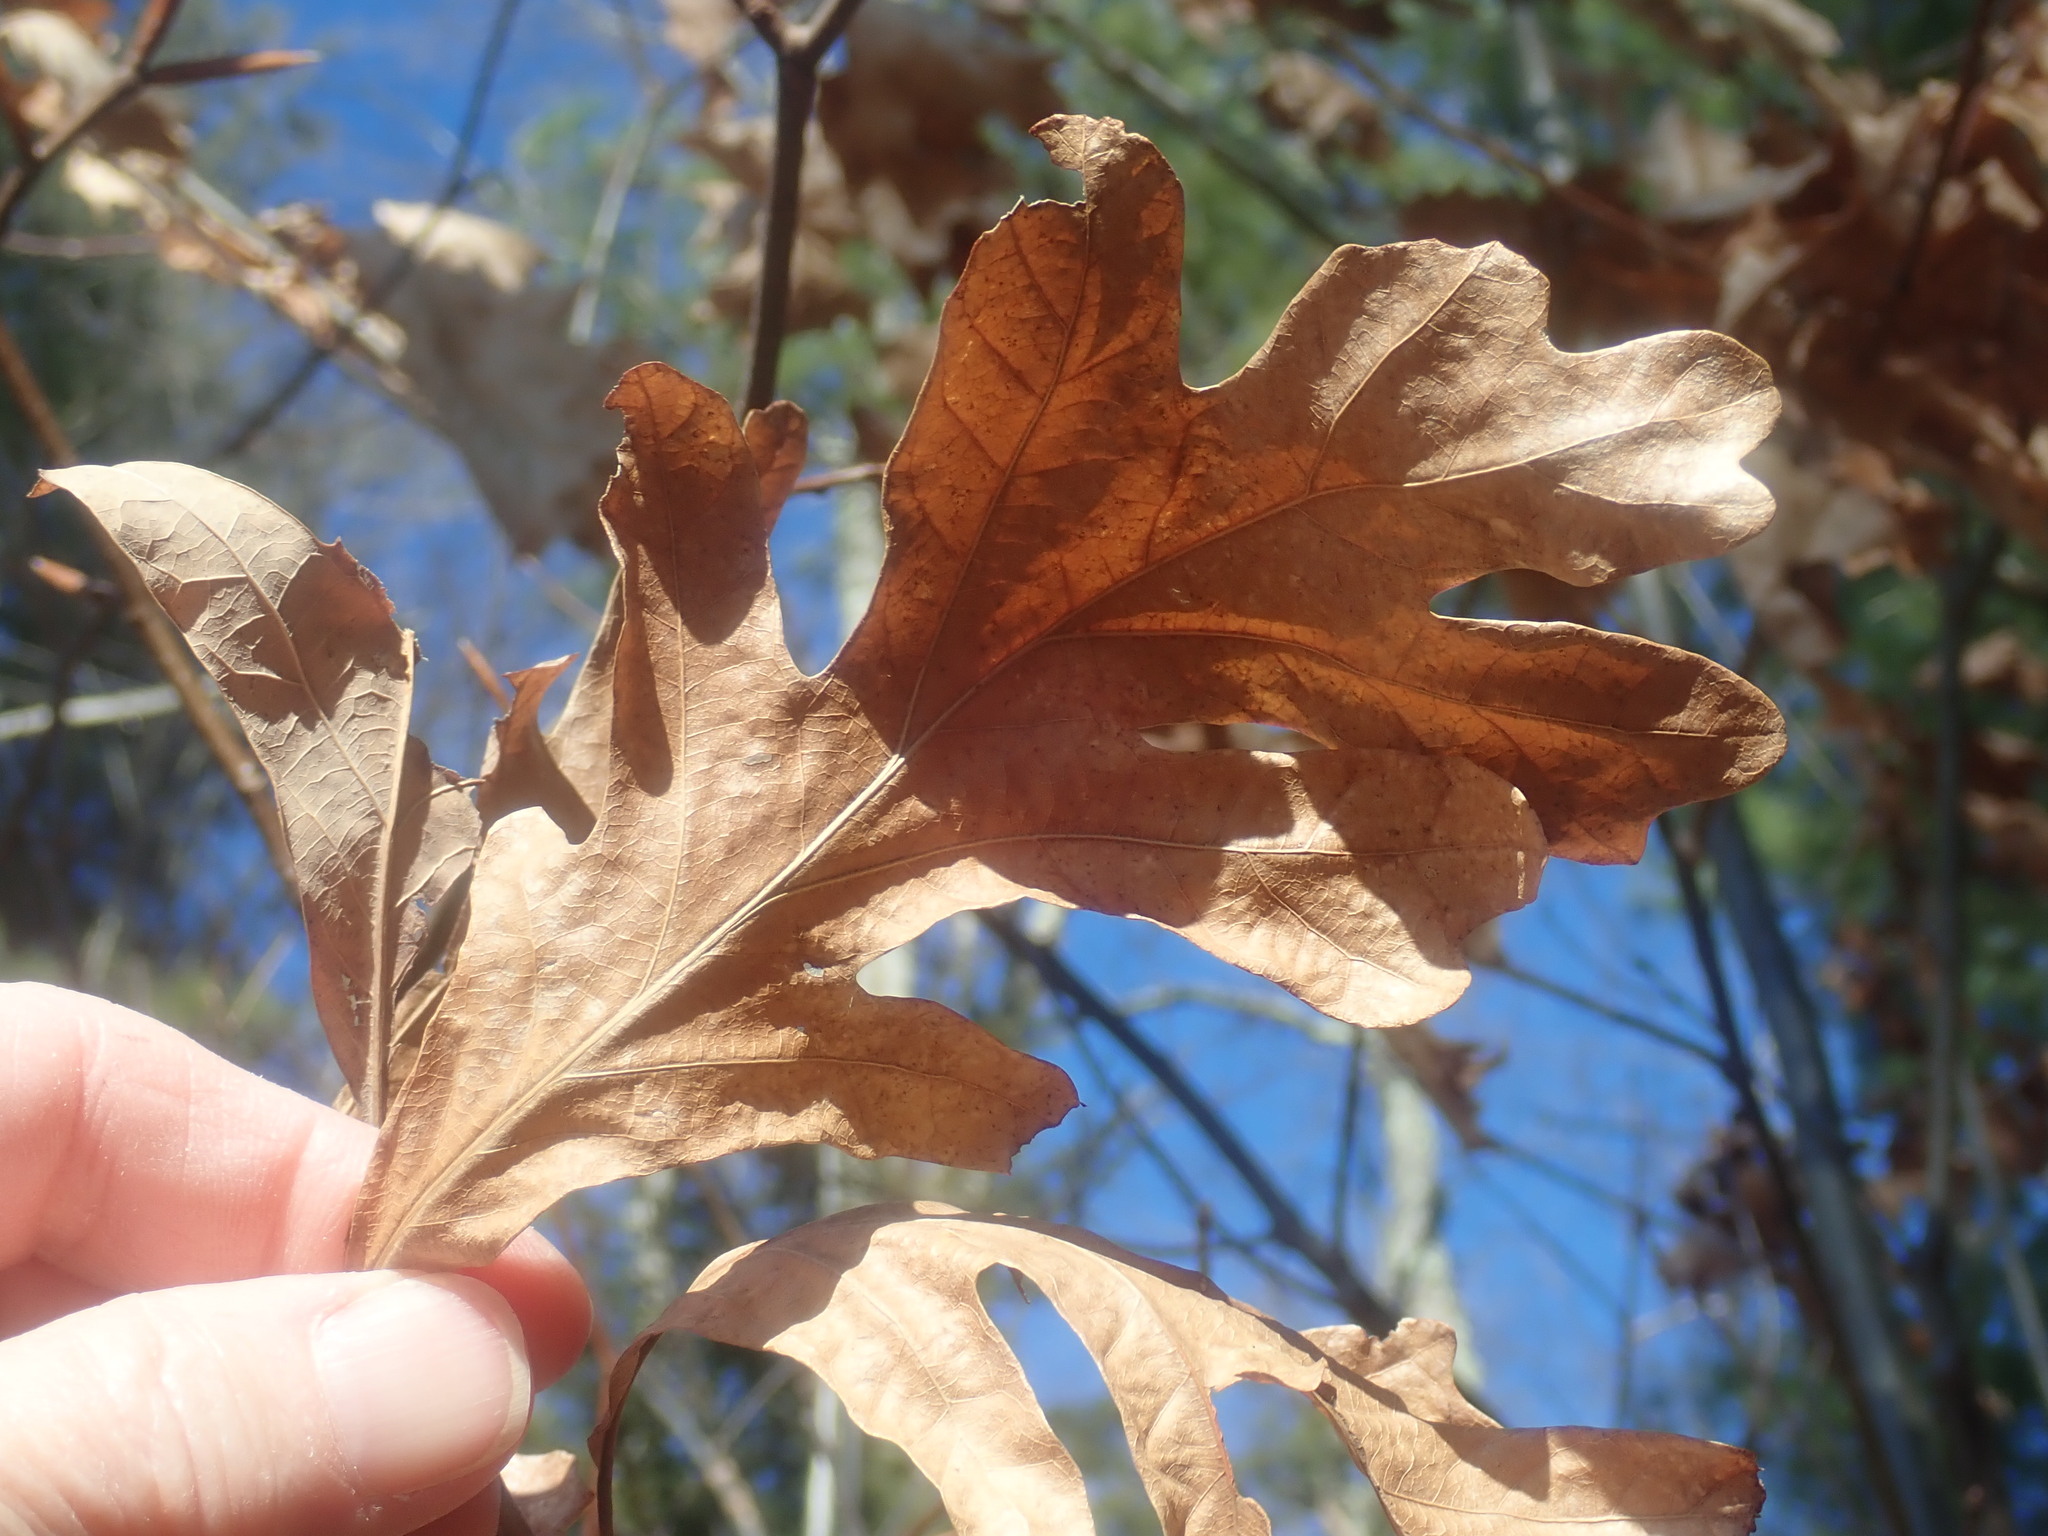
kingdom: Plantae
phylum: Tracheophyta
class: Magnoliopsida
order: Fagales
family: Fagaceae
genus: Quercus
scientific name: Quercus alba
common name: White oak
